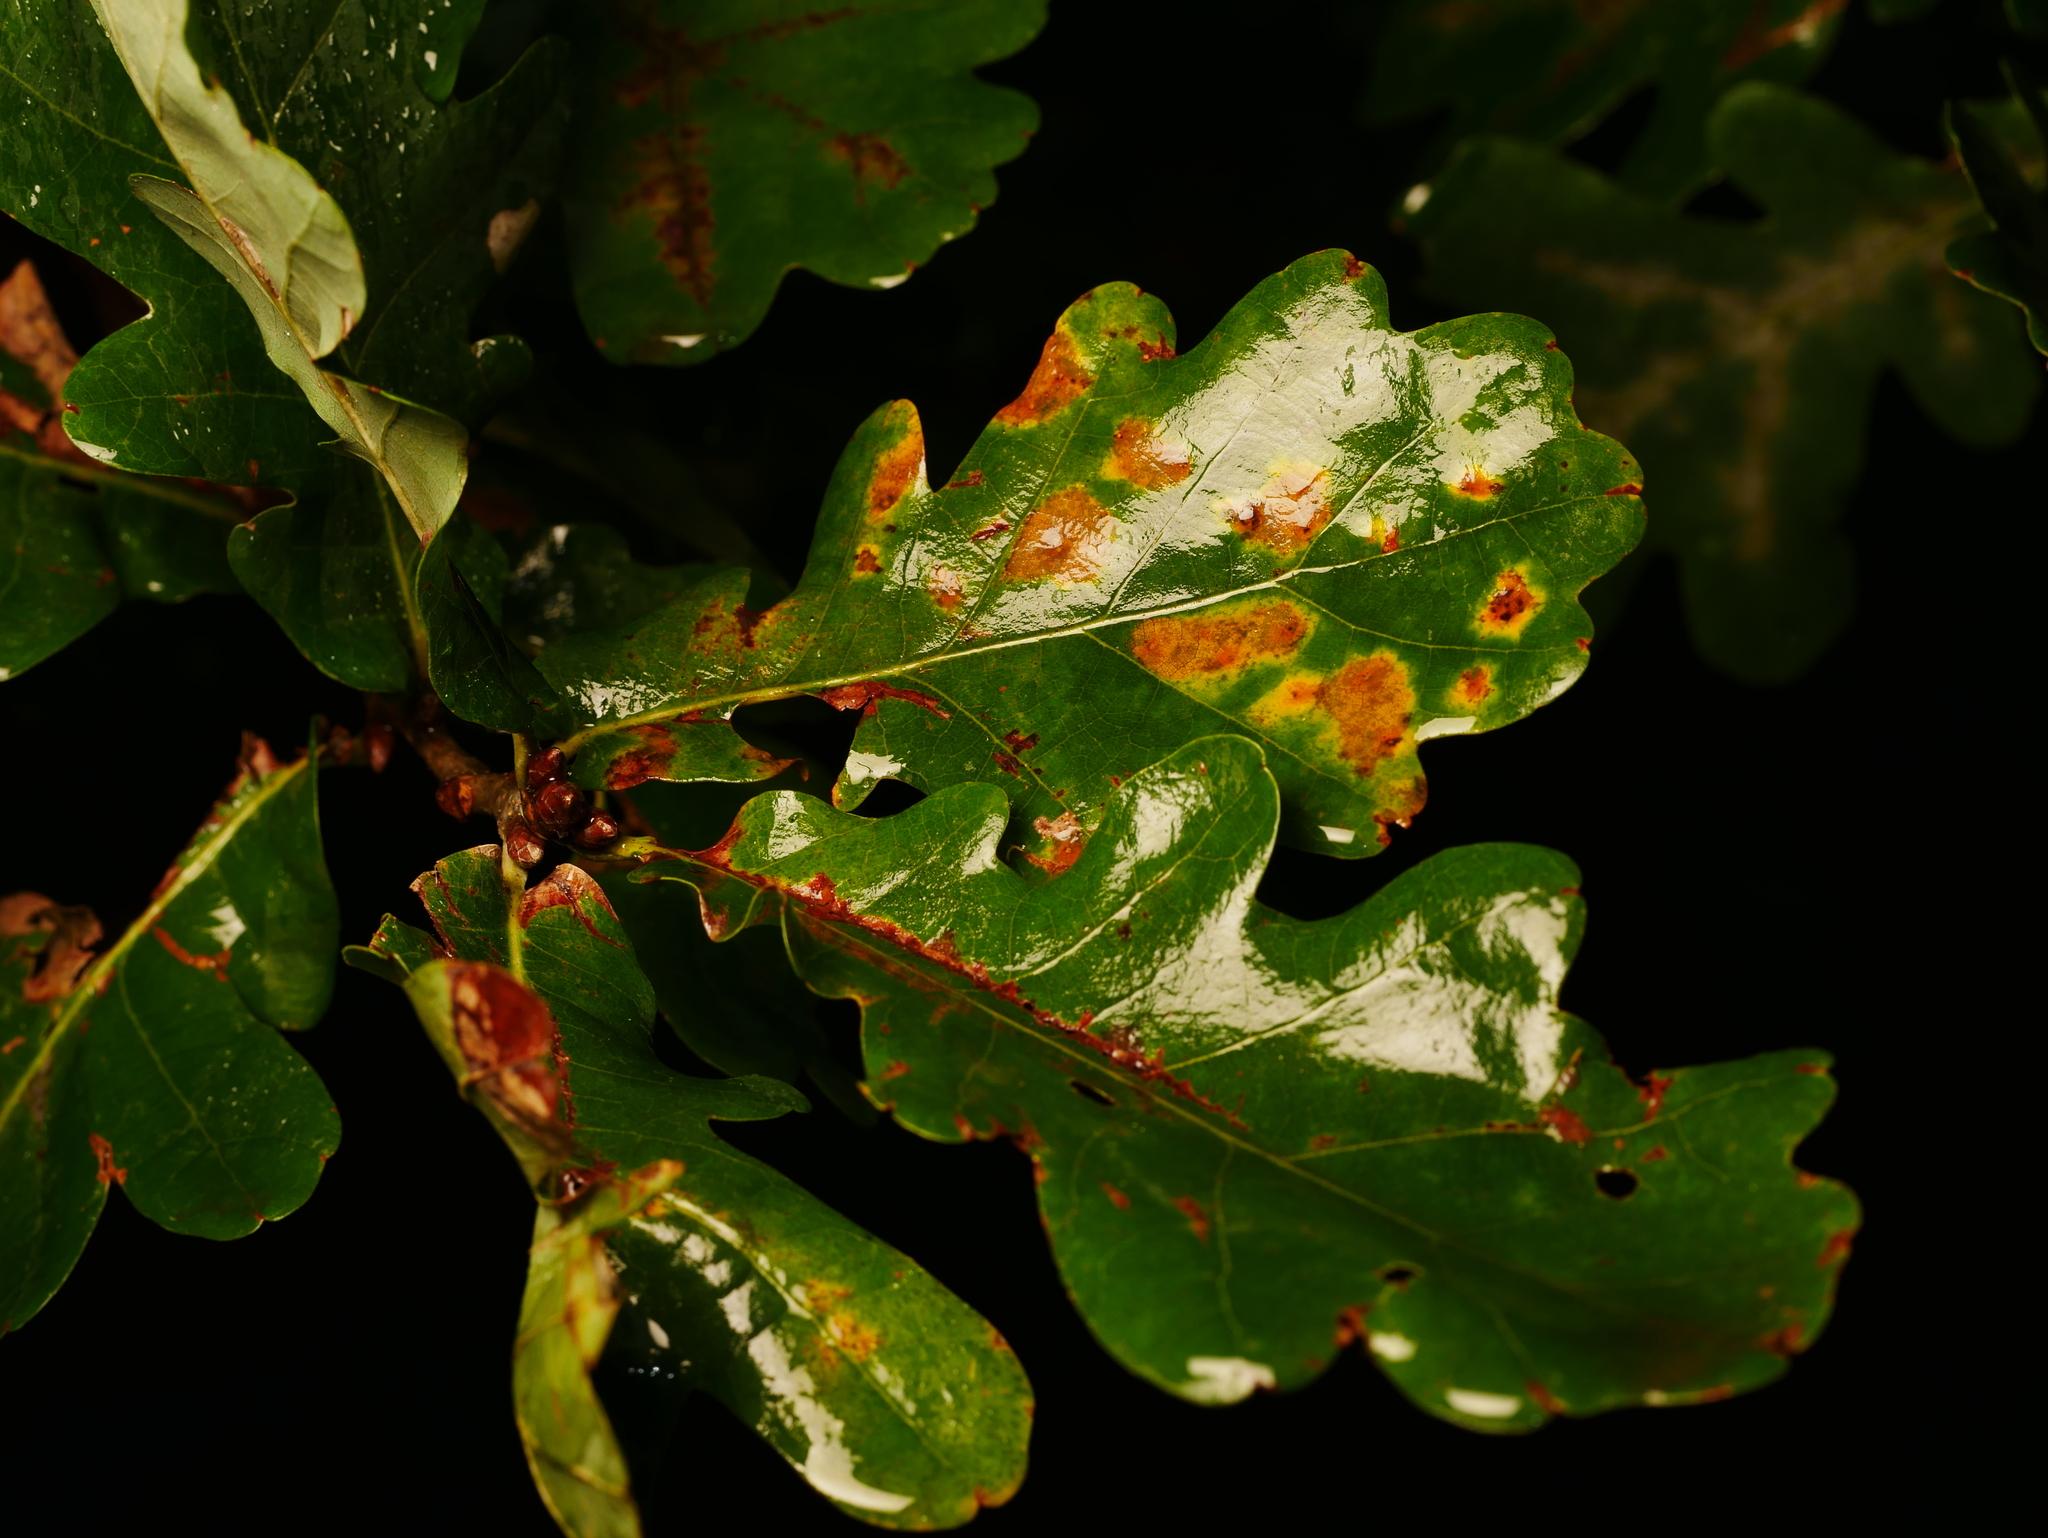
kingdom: Plantae
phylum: Tracheophyta
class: Magnoliopsida
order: Fagales
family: Fagaceae
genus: Quercus
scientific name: Quercus robur
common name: Pedunculate oak
